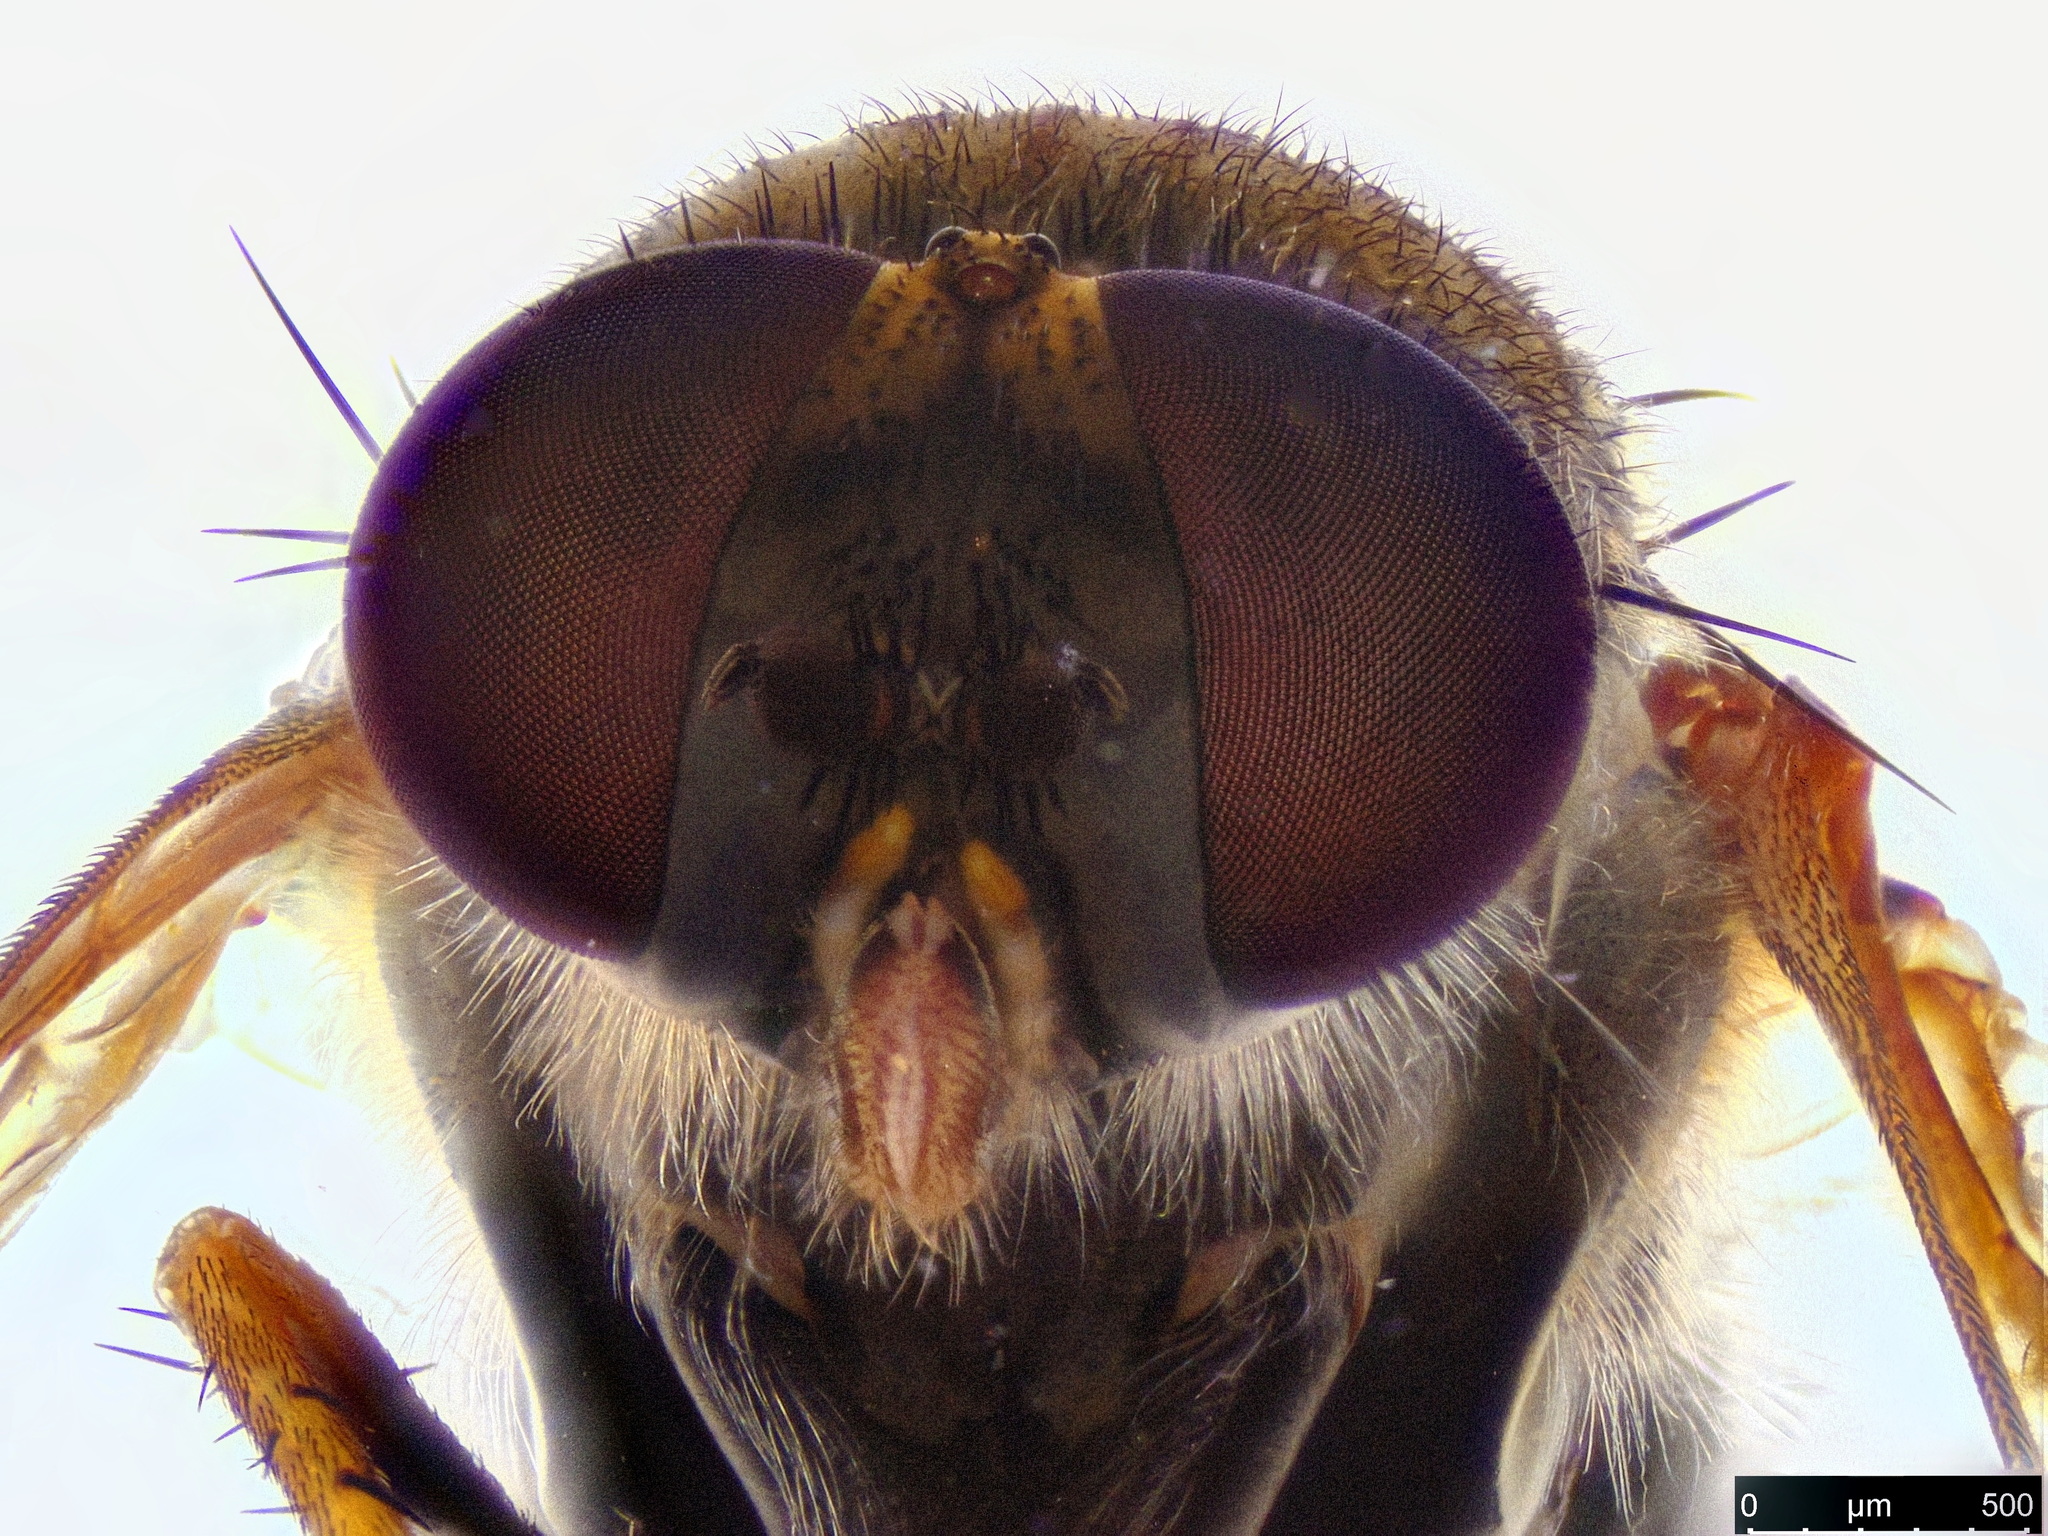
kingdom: Animalia
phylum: Arthropoda
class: Insecta
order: Diptera
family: Therevidae
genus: Anabarhynchus
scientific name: Anabarhynchus plumbeoides
